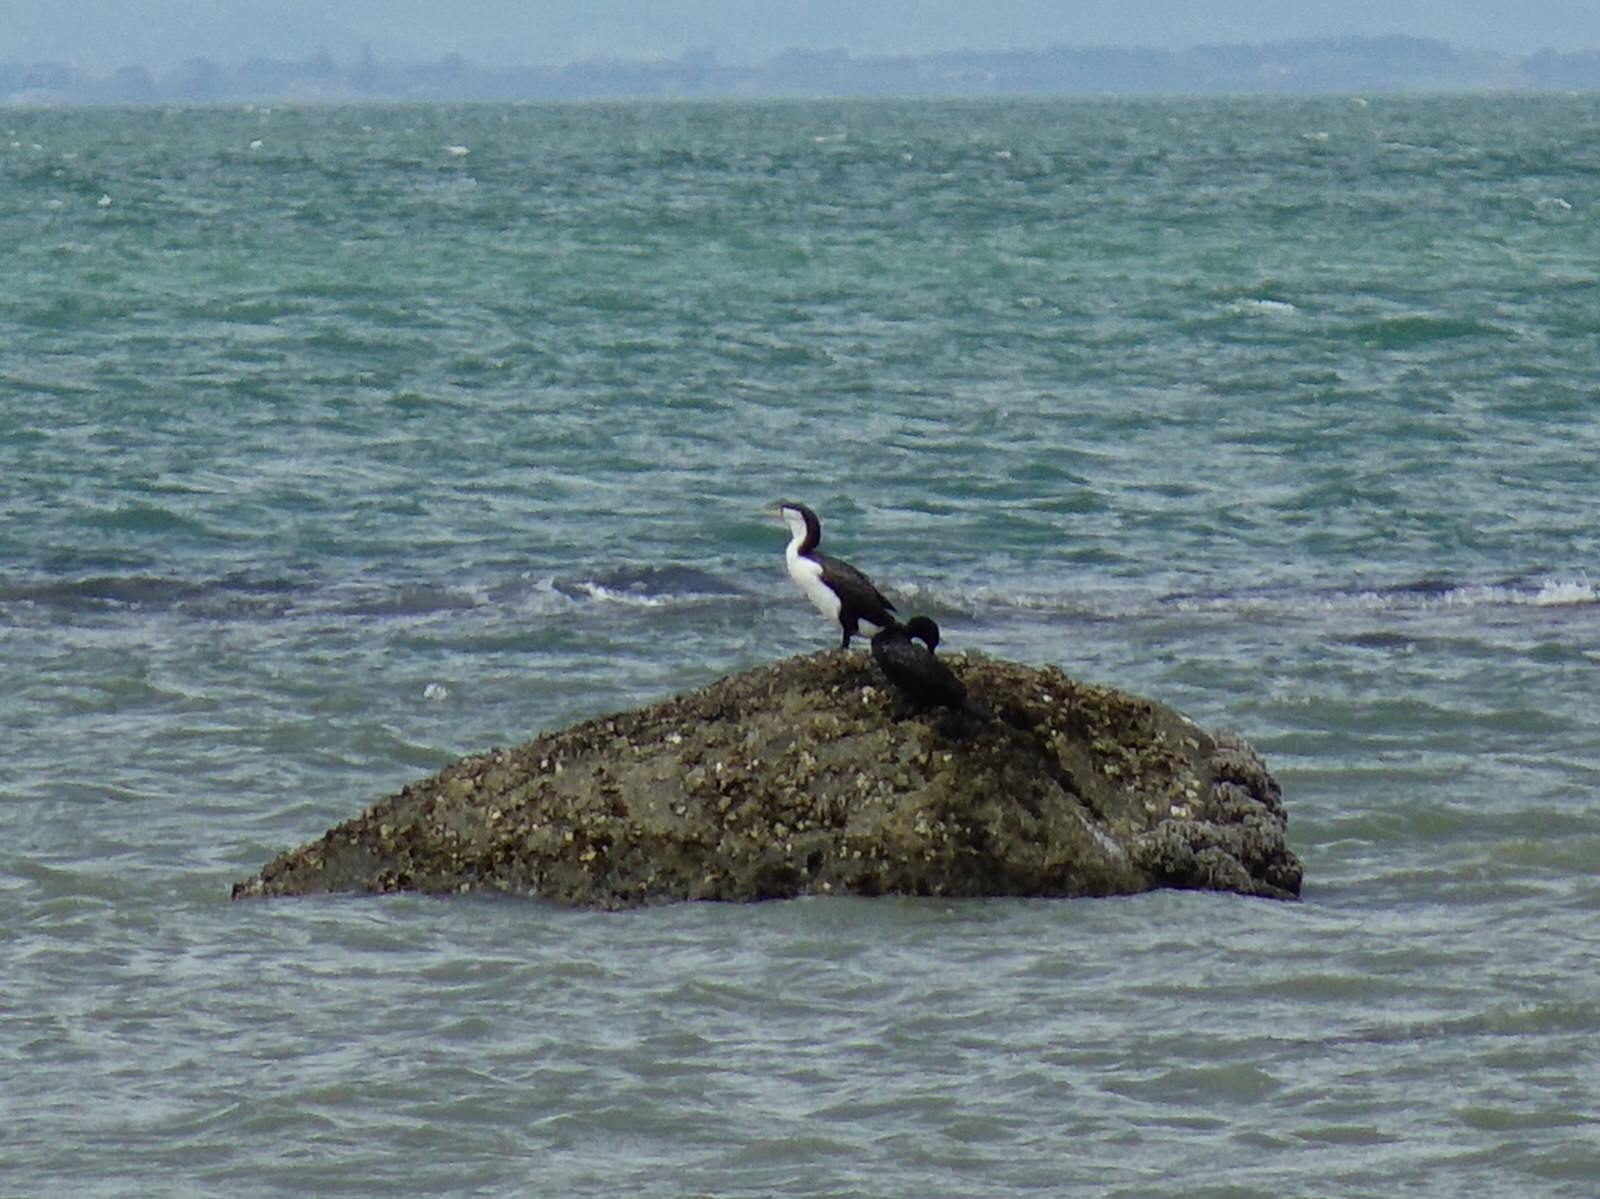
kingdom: Animalia
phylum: Chordata
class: Aves
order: Suliformes
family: Phalacrocoracidae
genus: Phalacrocorax
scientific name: Phalacrocorax varius
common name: Pied cormorant
